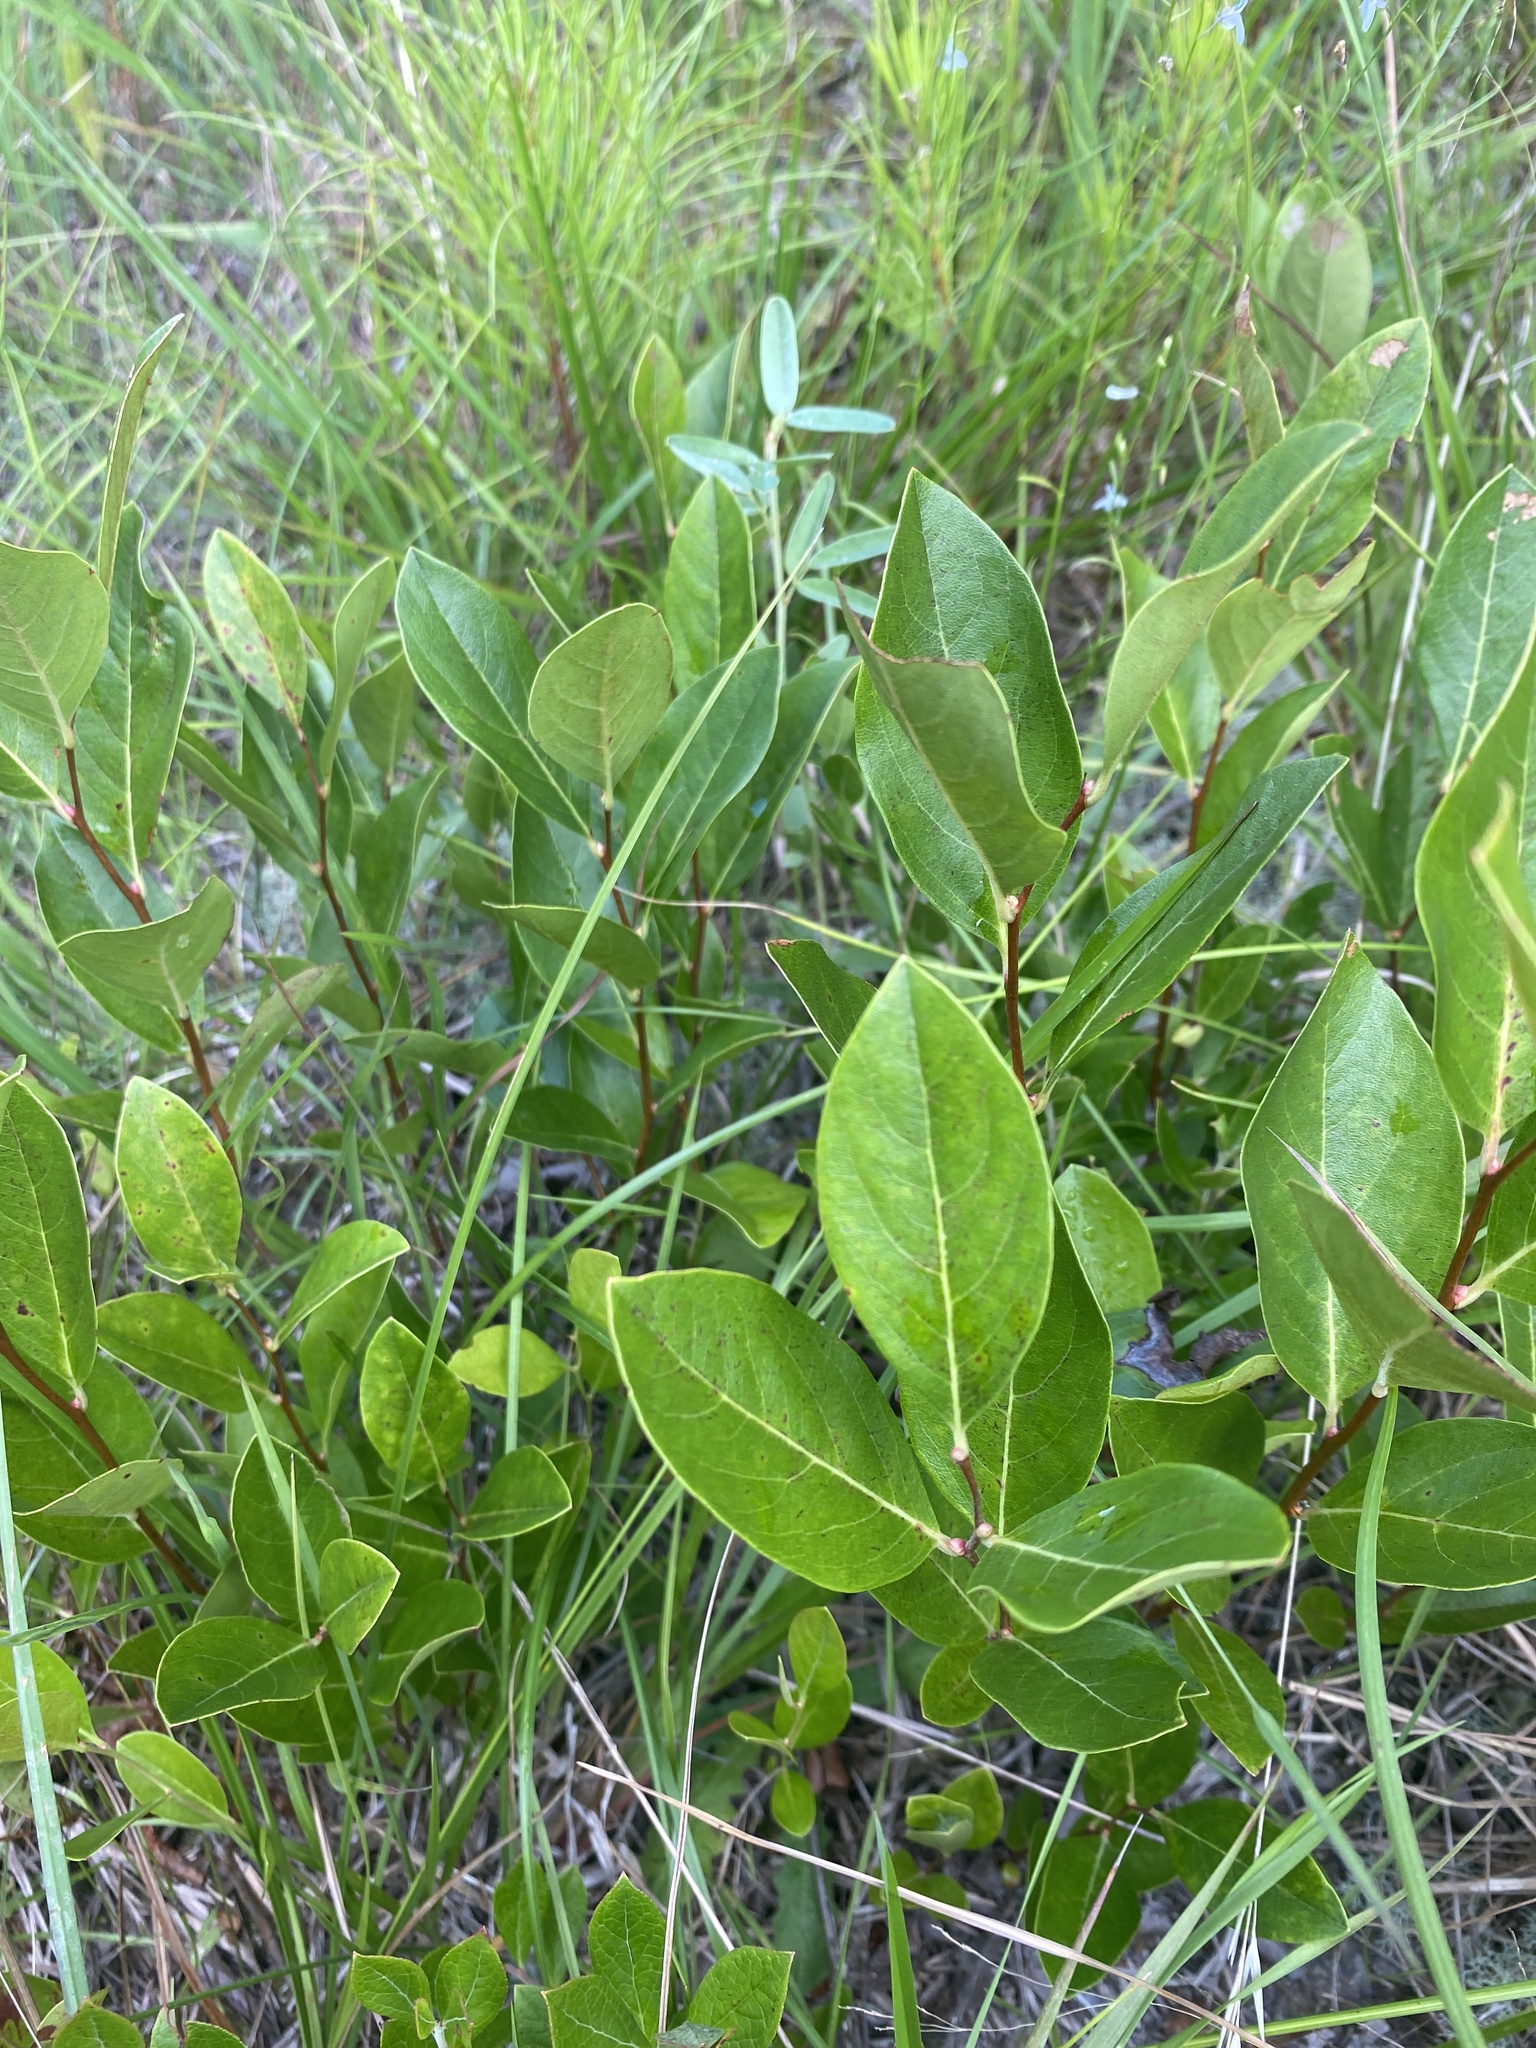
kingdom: Plantae
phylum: Tracheophyta
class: Magnoliopsida
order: Ericales
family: Ericaceae
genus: Lyonia
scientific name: Lyonia mariana
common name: Staggerbush
